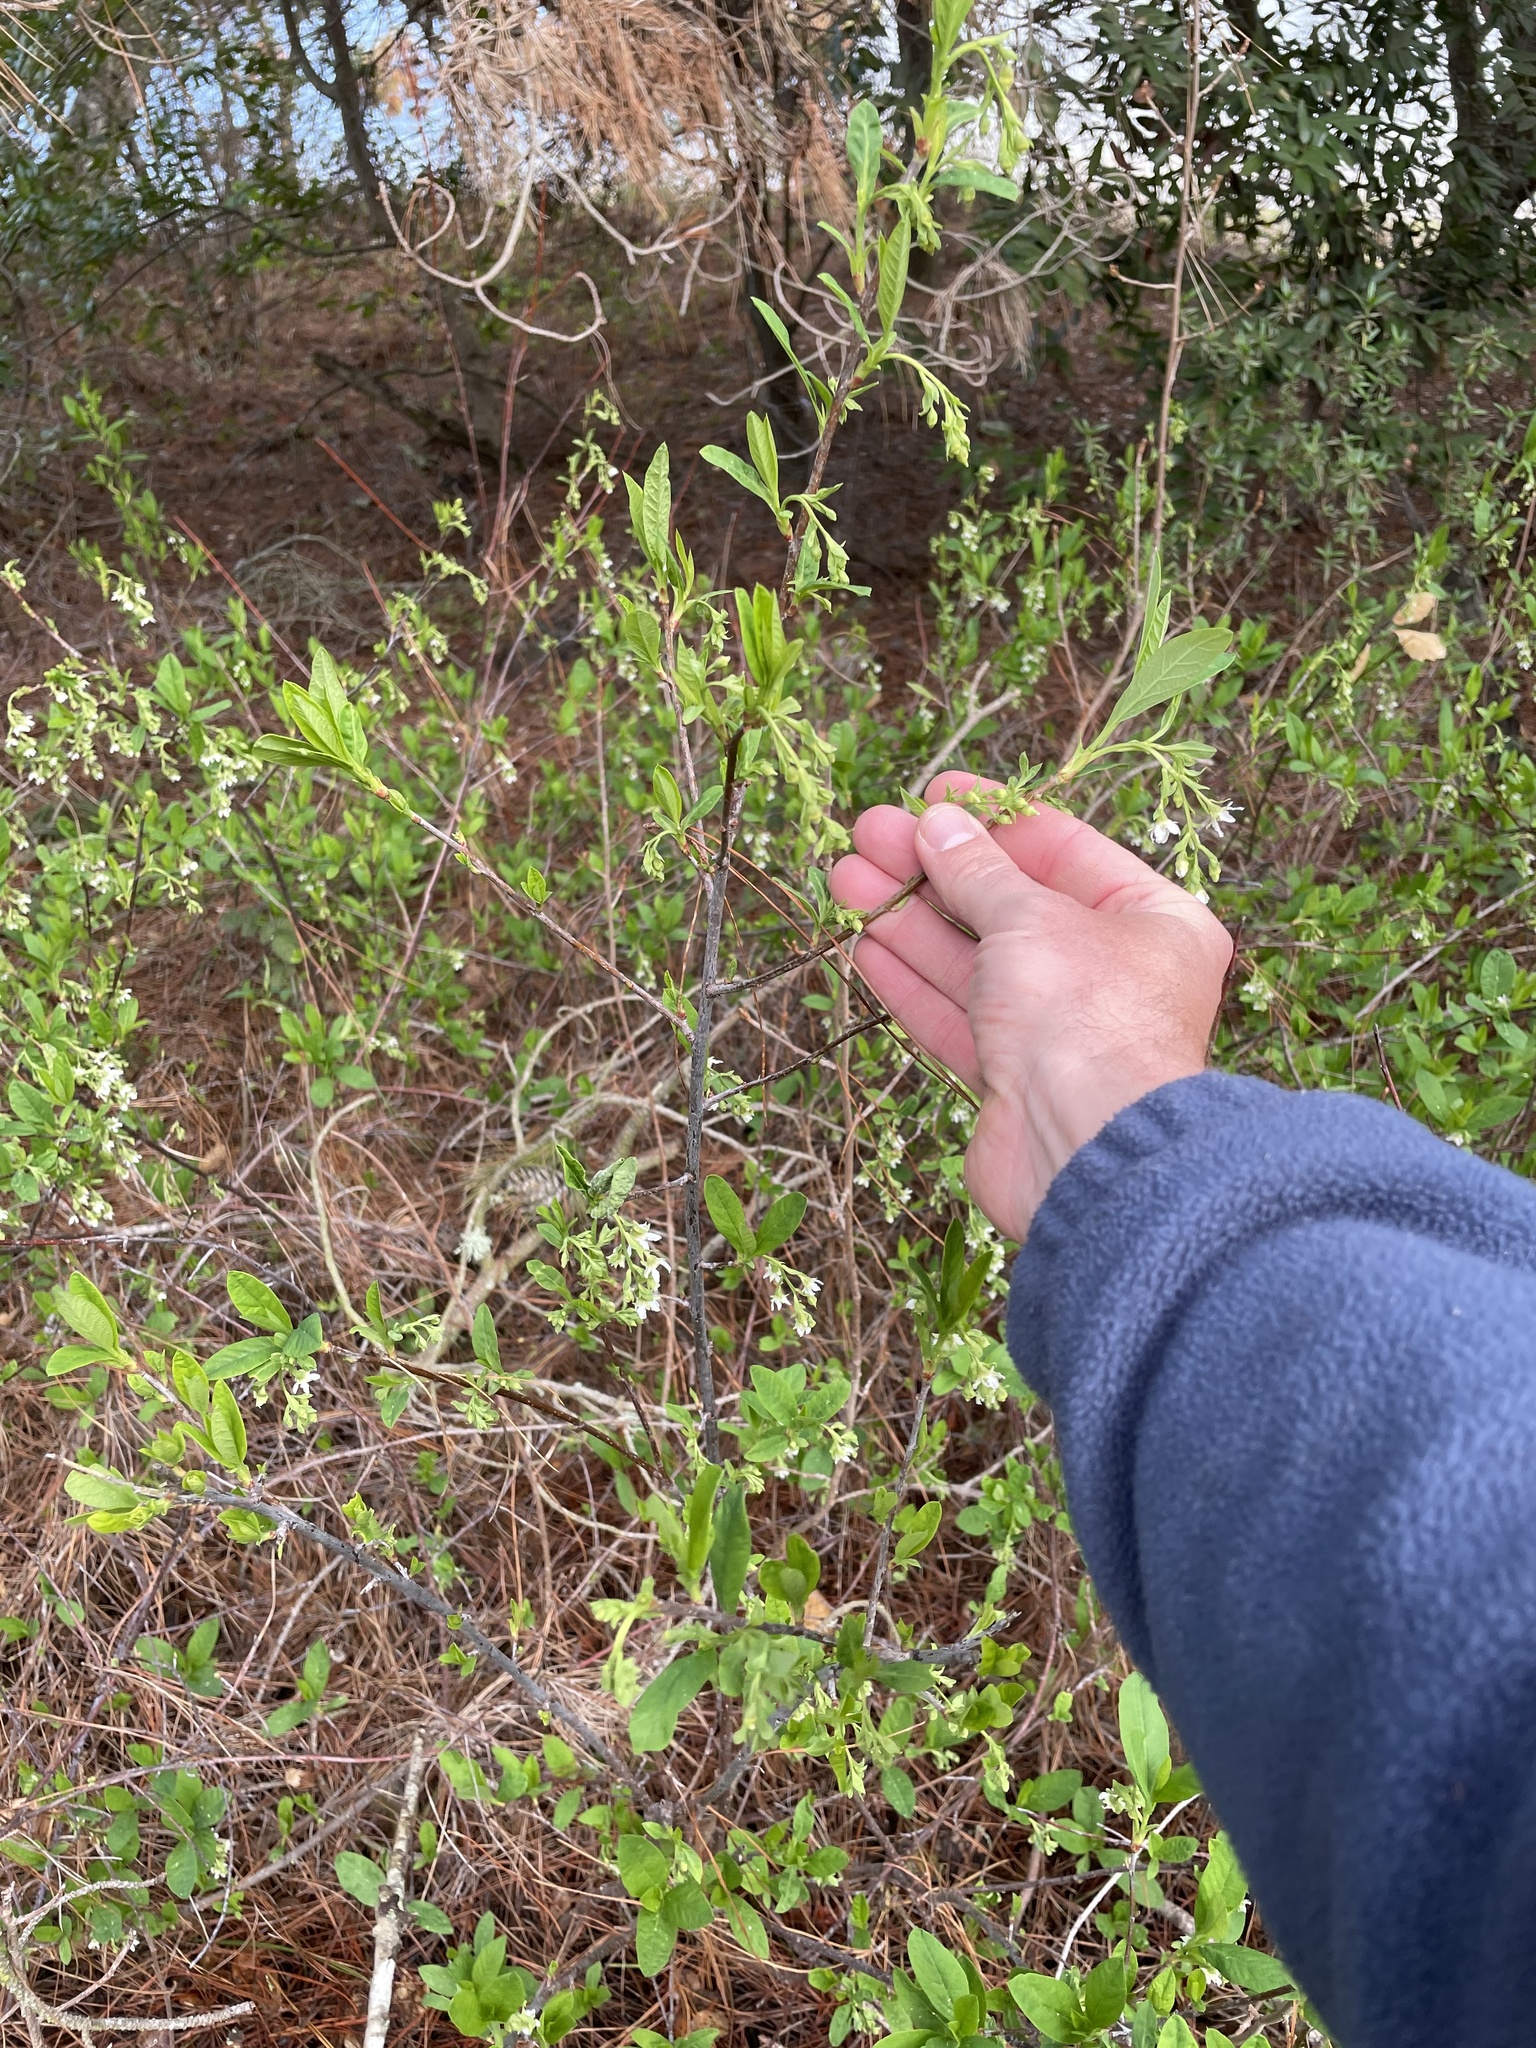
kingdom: Plantae
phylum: Tracheophyta
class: Magnoliopsida
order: Rosales
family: Rosaceae
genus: Oemleria
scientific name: Oemleria cerasiformis
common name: Osoberry
